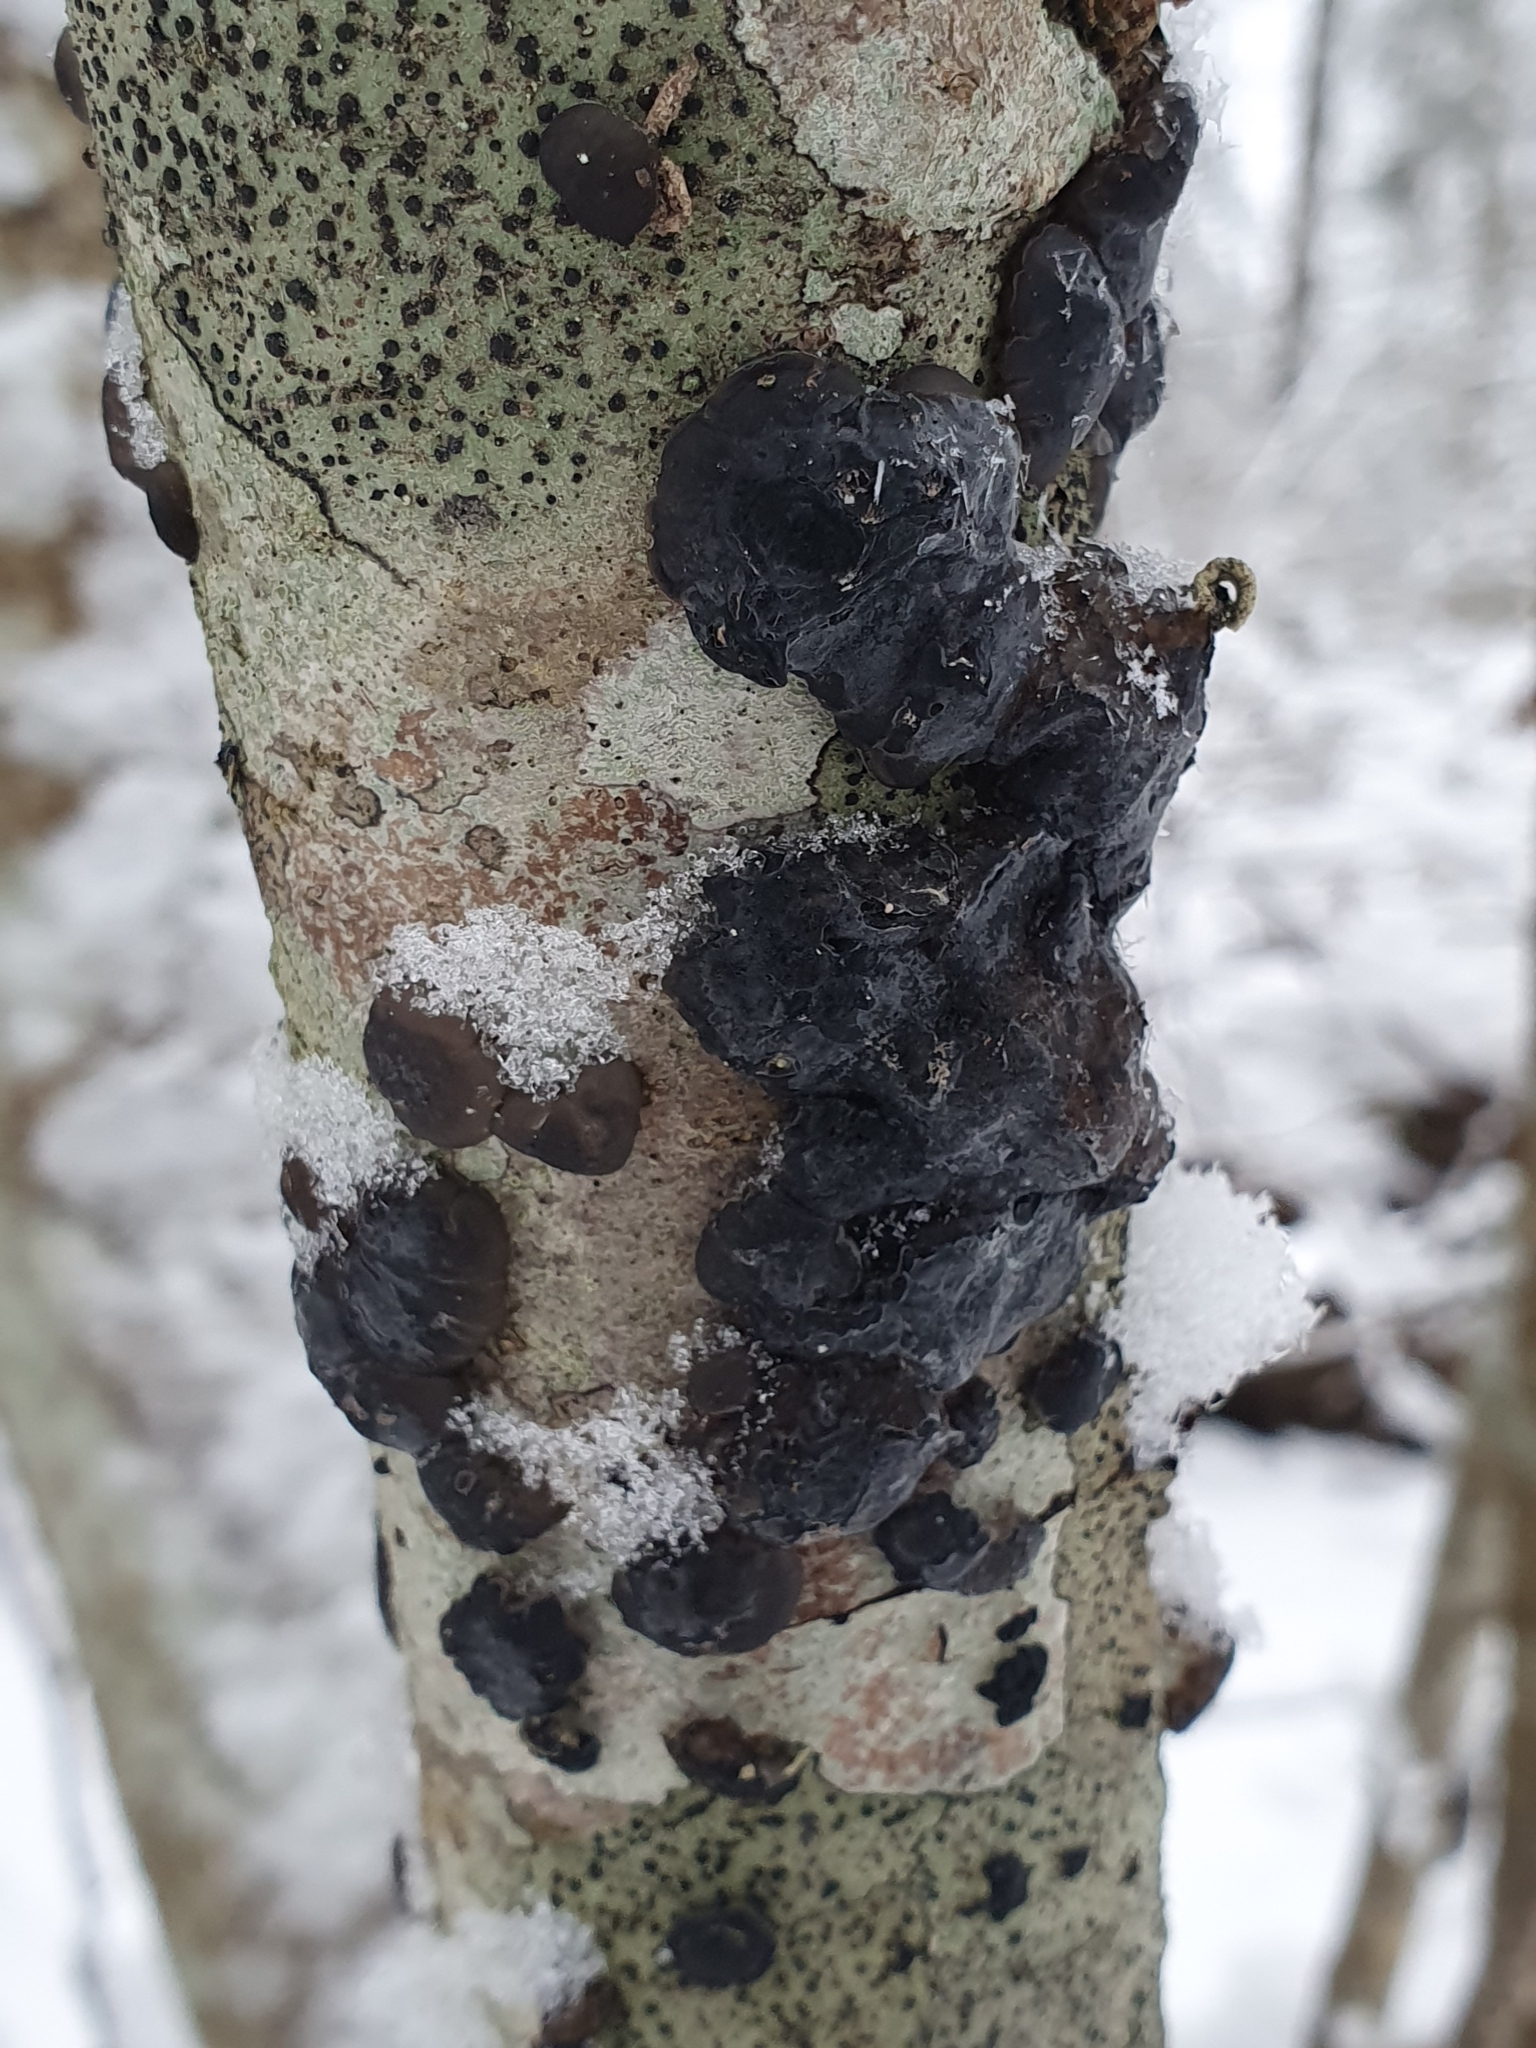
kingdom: Fungi
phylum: Basidiomycota
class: Agaricomycetes
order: Auriculariales
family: Auriculariaceae
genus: Exidia
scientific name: Exidia glandulosa
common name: Witches' butter
